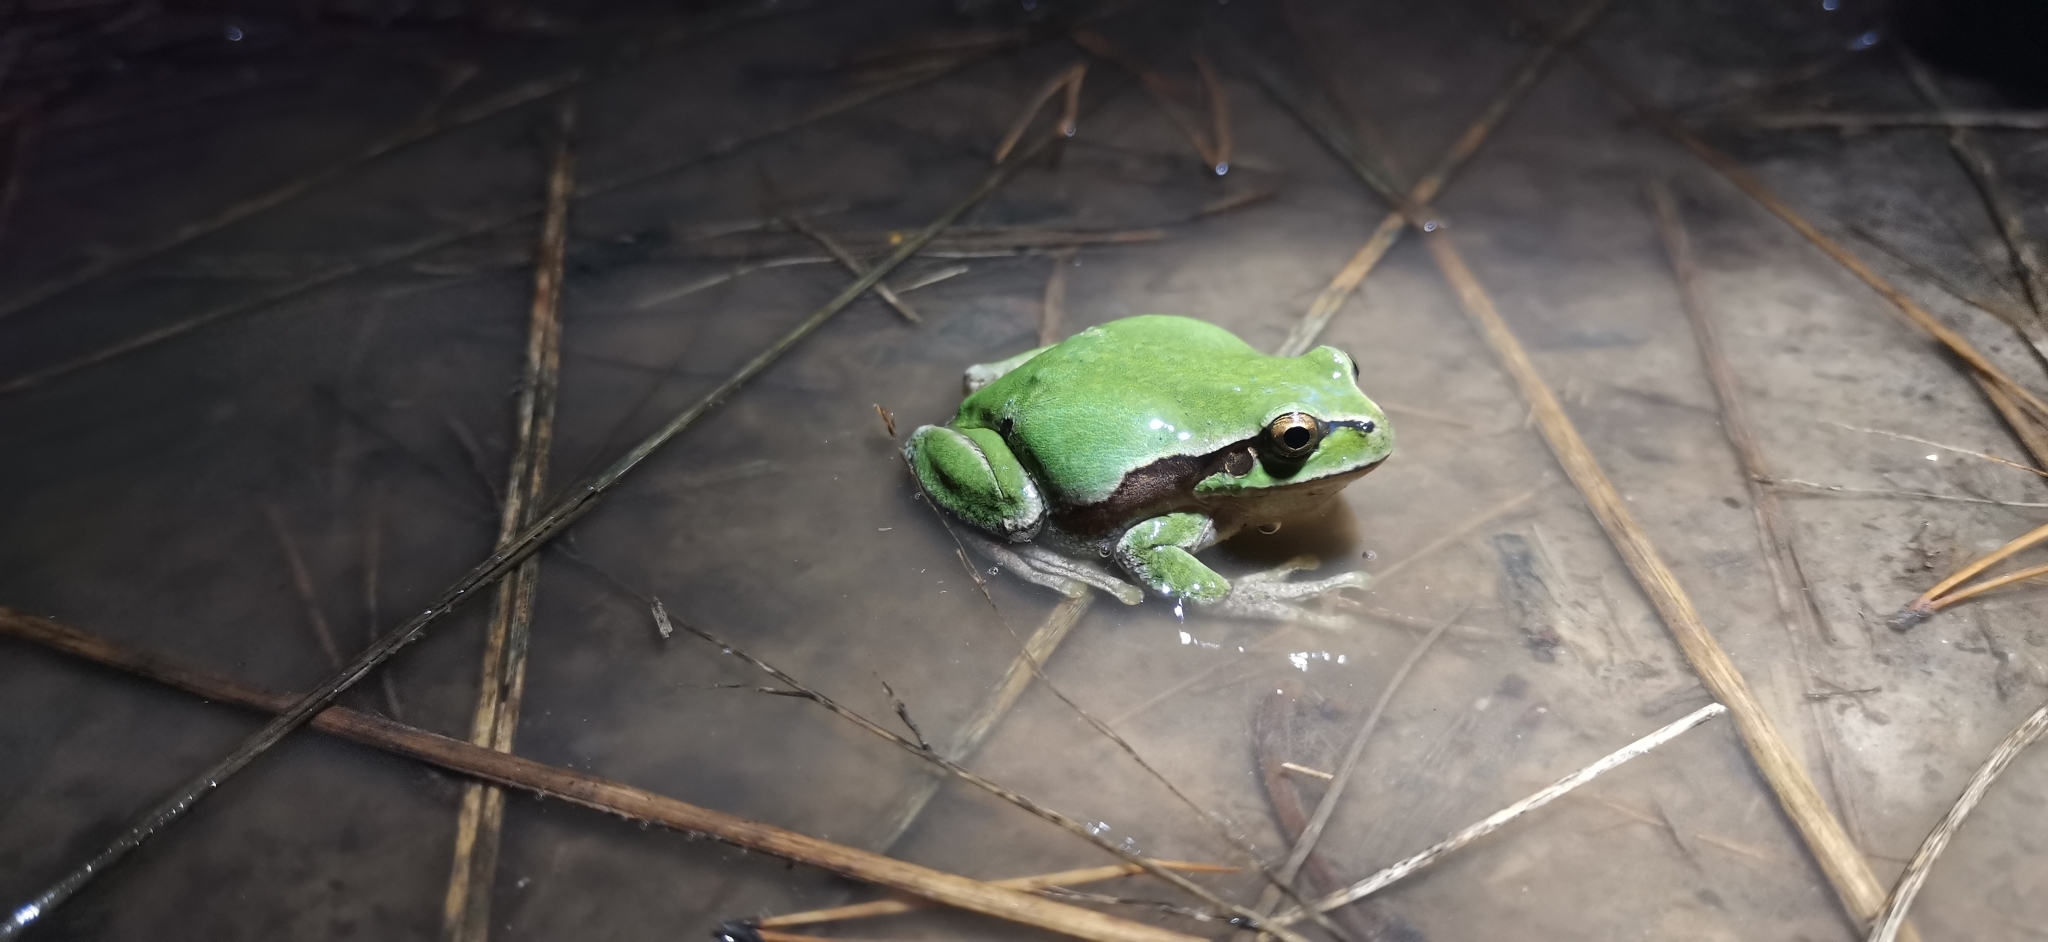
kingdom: Animalia
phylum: Chordata
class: Amphibia
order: Anura
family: Hylidae
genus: Hyla
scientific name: Hyla intermedia
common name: Italian tree frog
